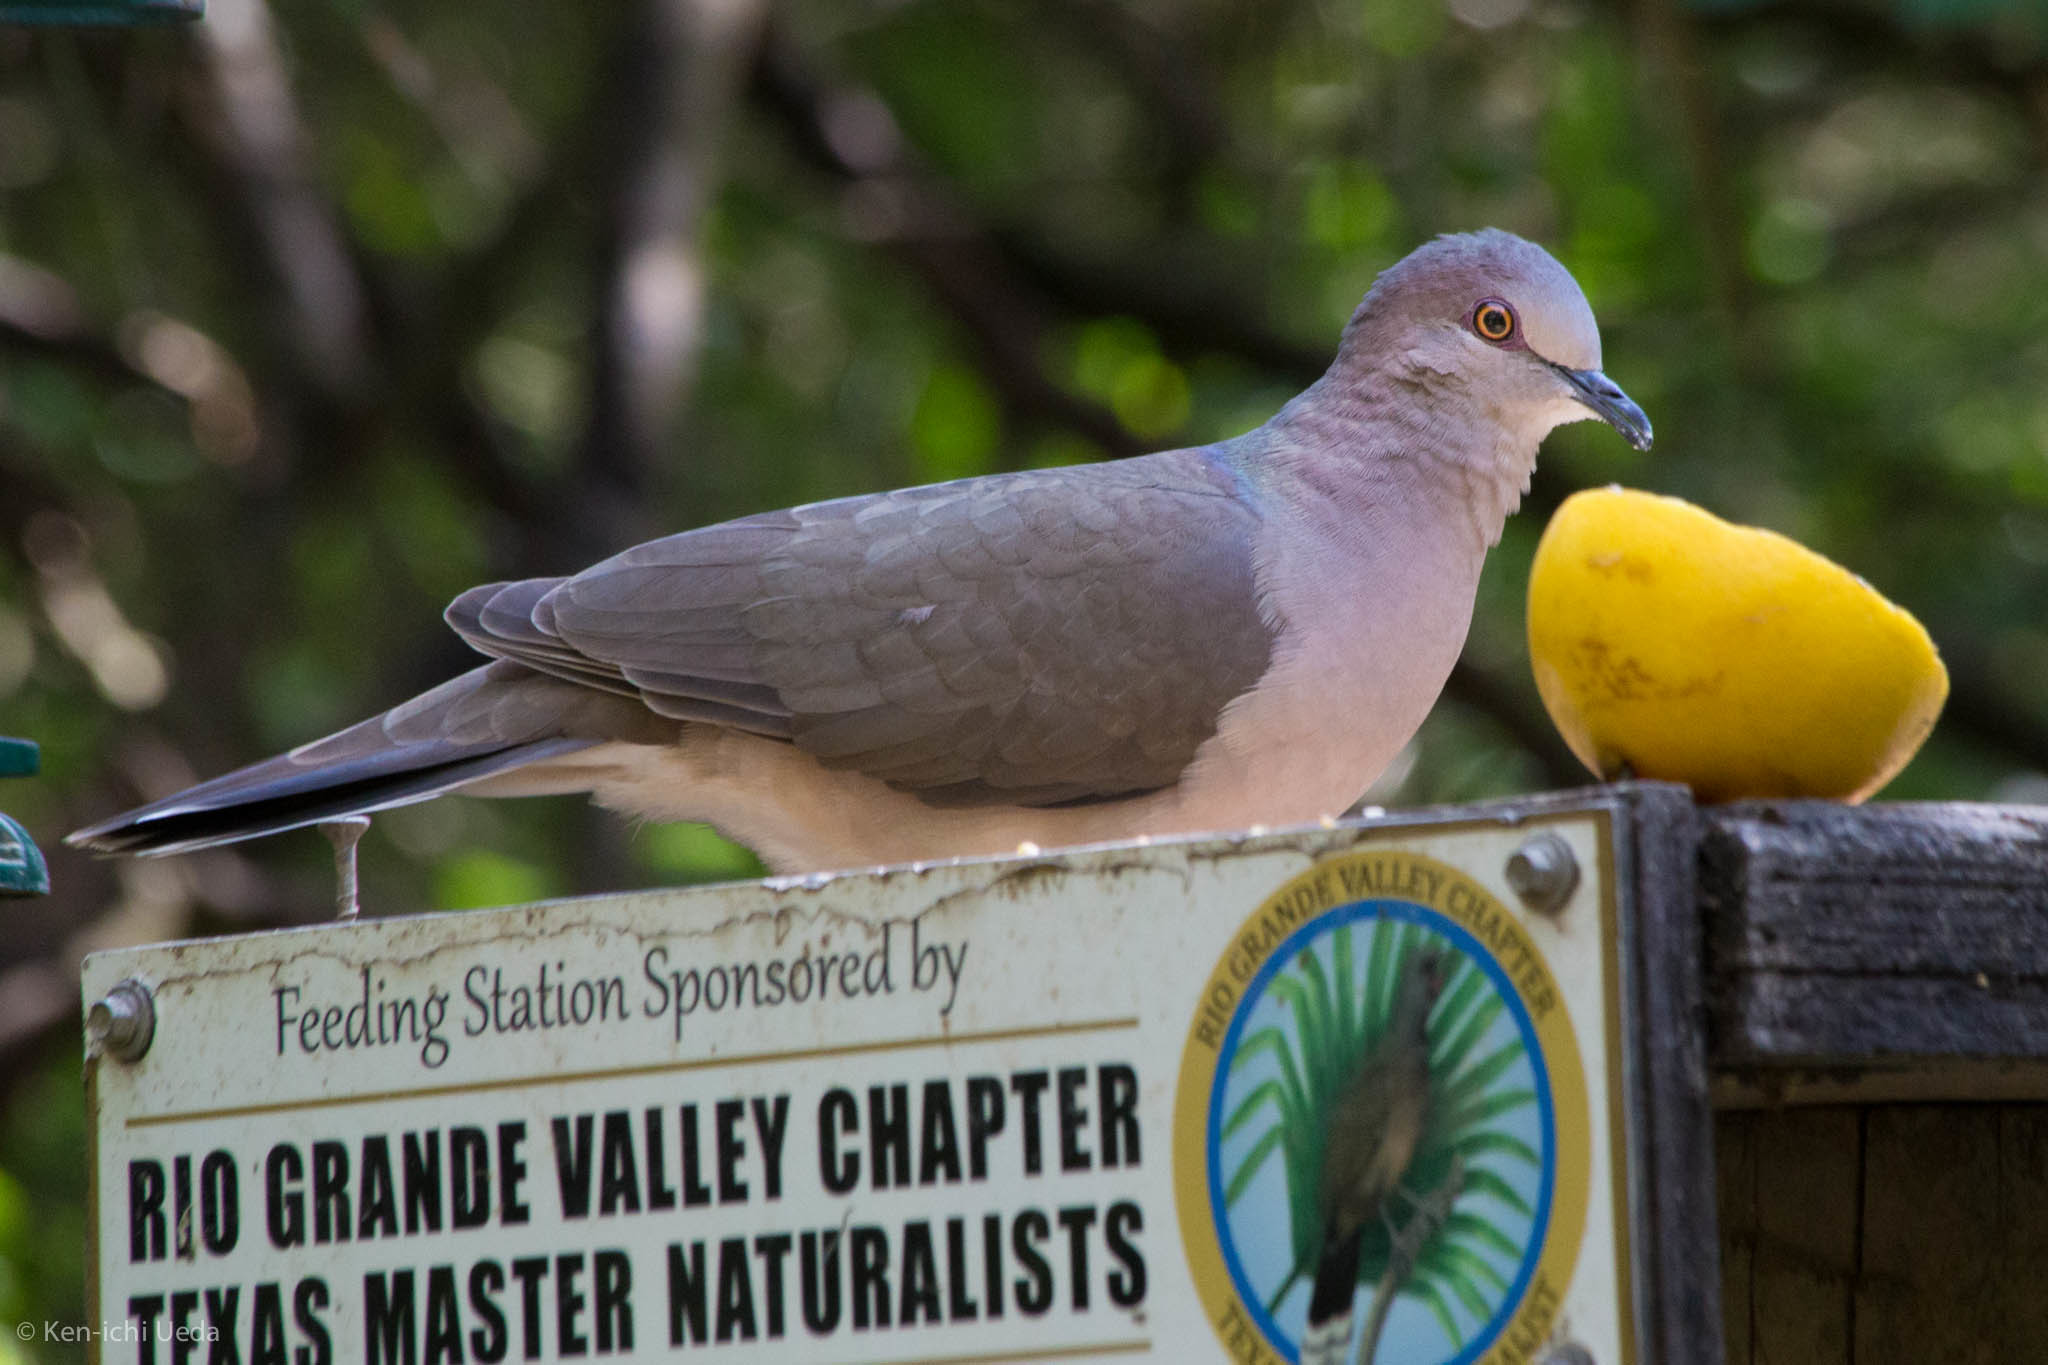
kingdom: Animalia
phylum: Chordata
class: Aves
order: Columbiformes
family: Columbidae
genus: Leptotila
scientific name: Leptotila verreauxi
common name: White-tipped dove
